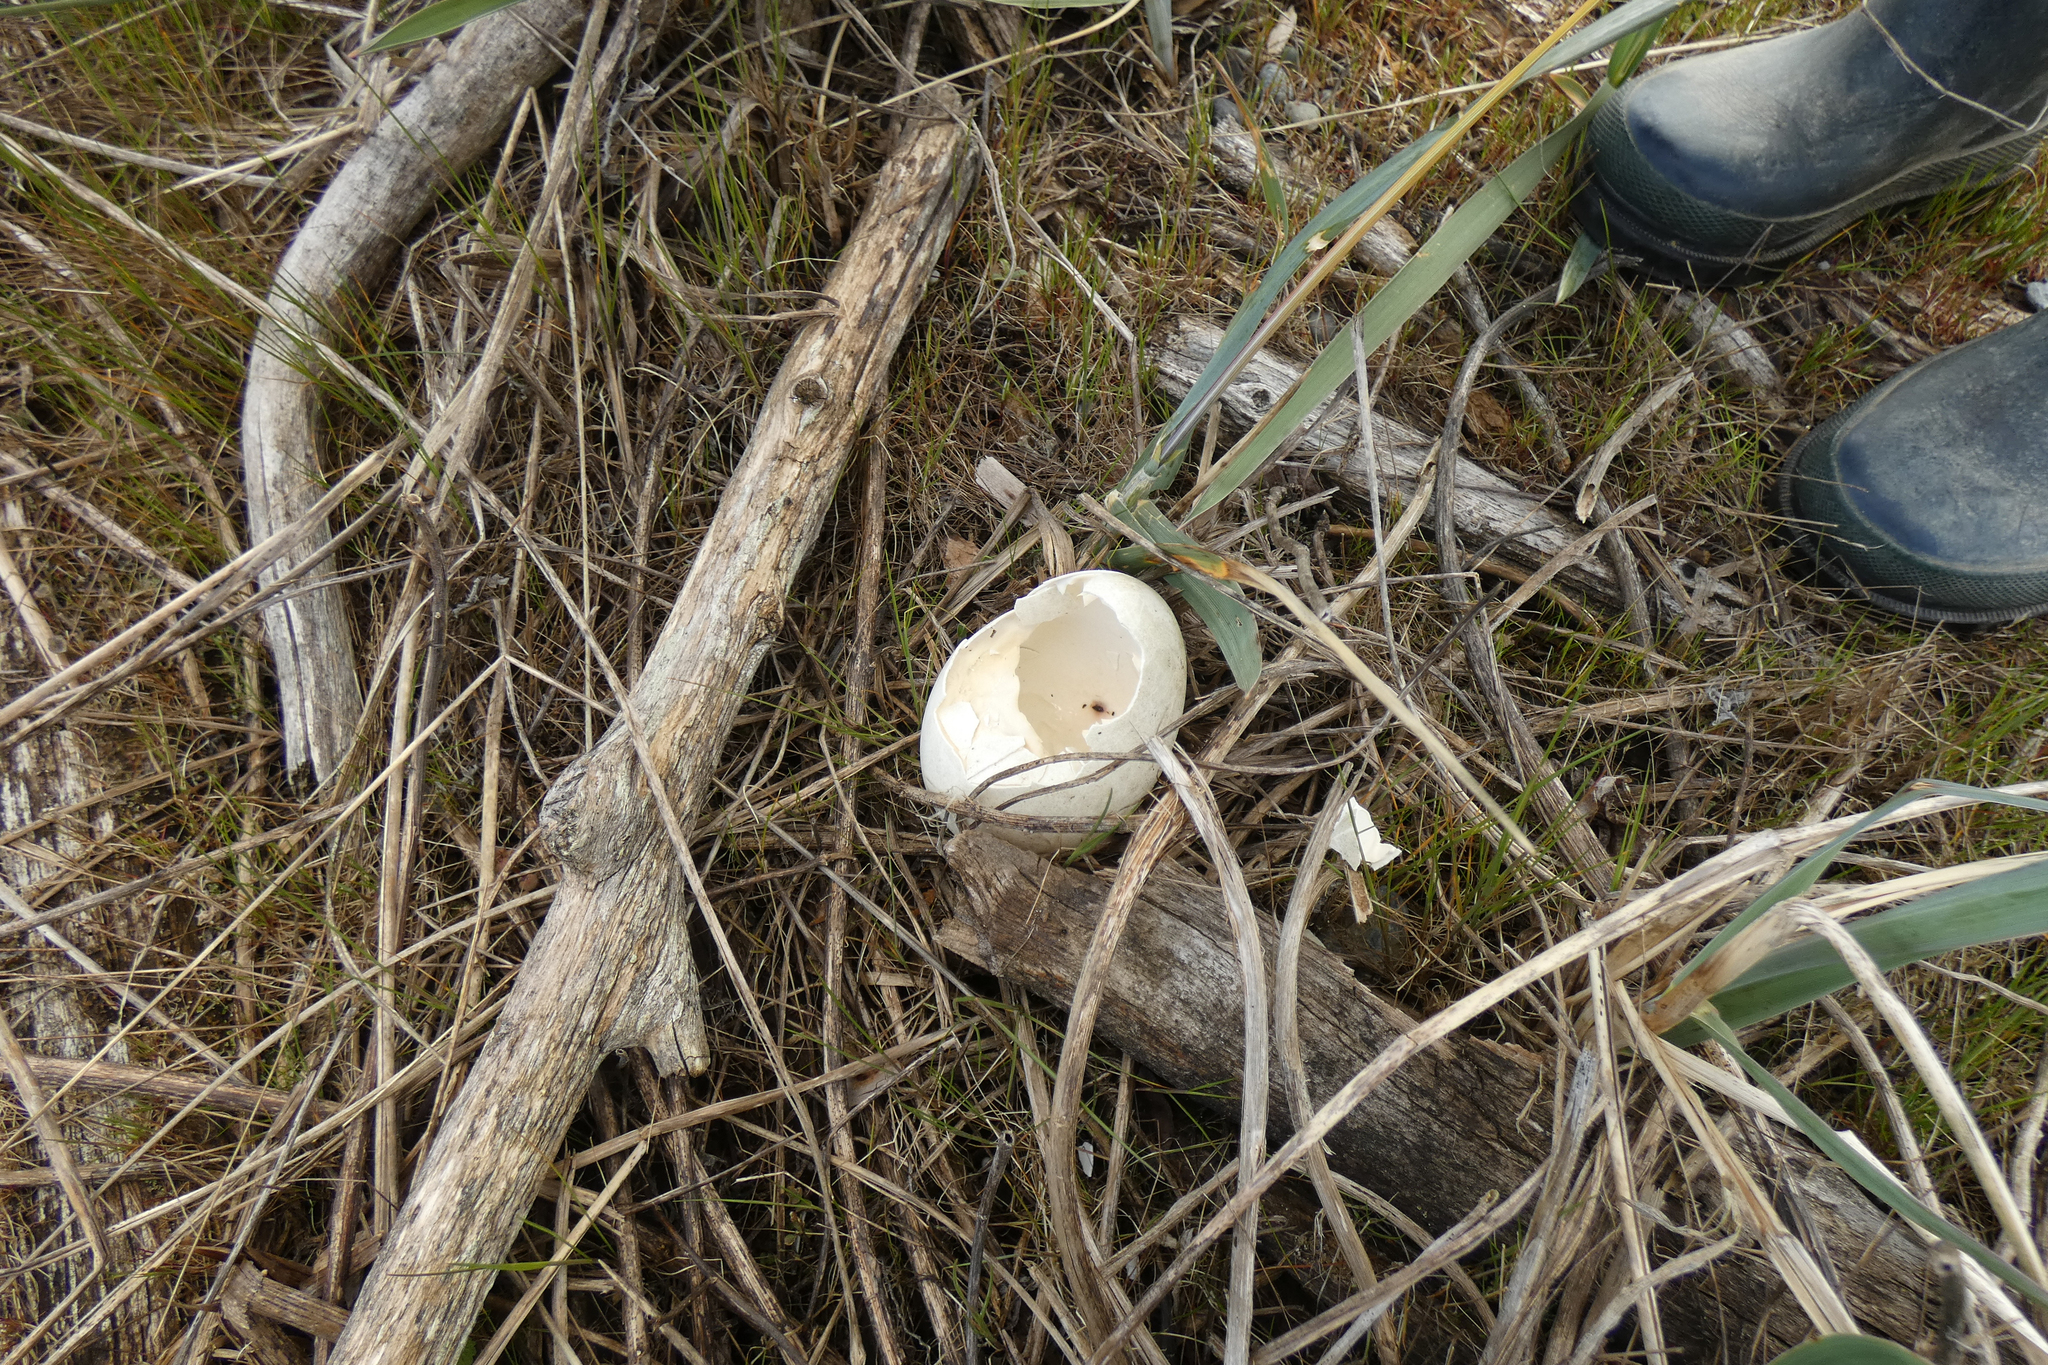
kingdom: Animalia
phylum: Chordata
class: Aves
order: Anseriformes
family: Anatidae
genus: Branta
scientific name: Branta canadensis
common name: Canada goose
